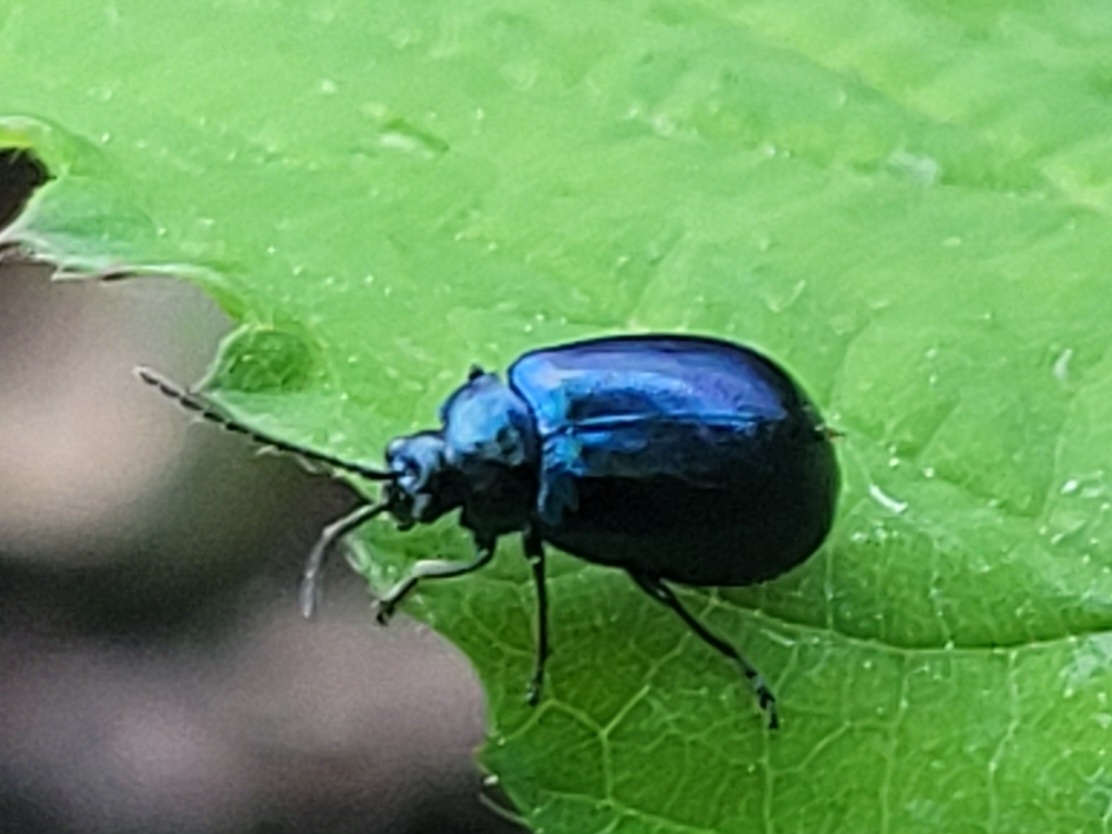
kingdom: Animalia
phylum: Arthropoda
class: Insecta
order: Coleoptera
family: Chrysomelidae
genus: Agelastica
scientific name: Agelastica alni
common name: Alder leaf beetle
